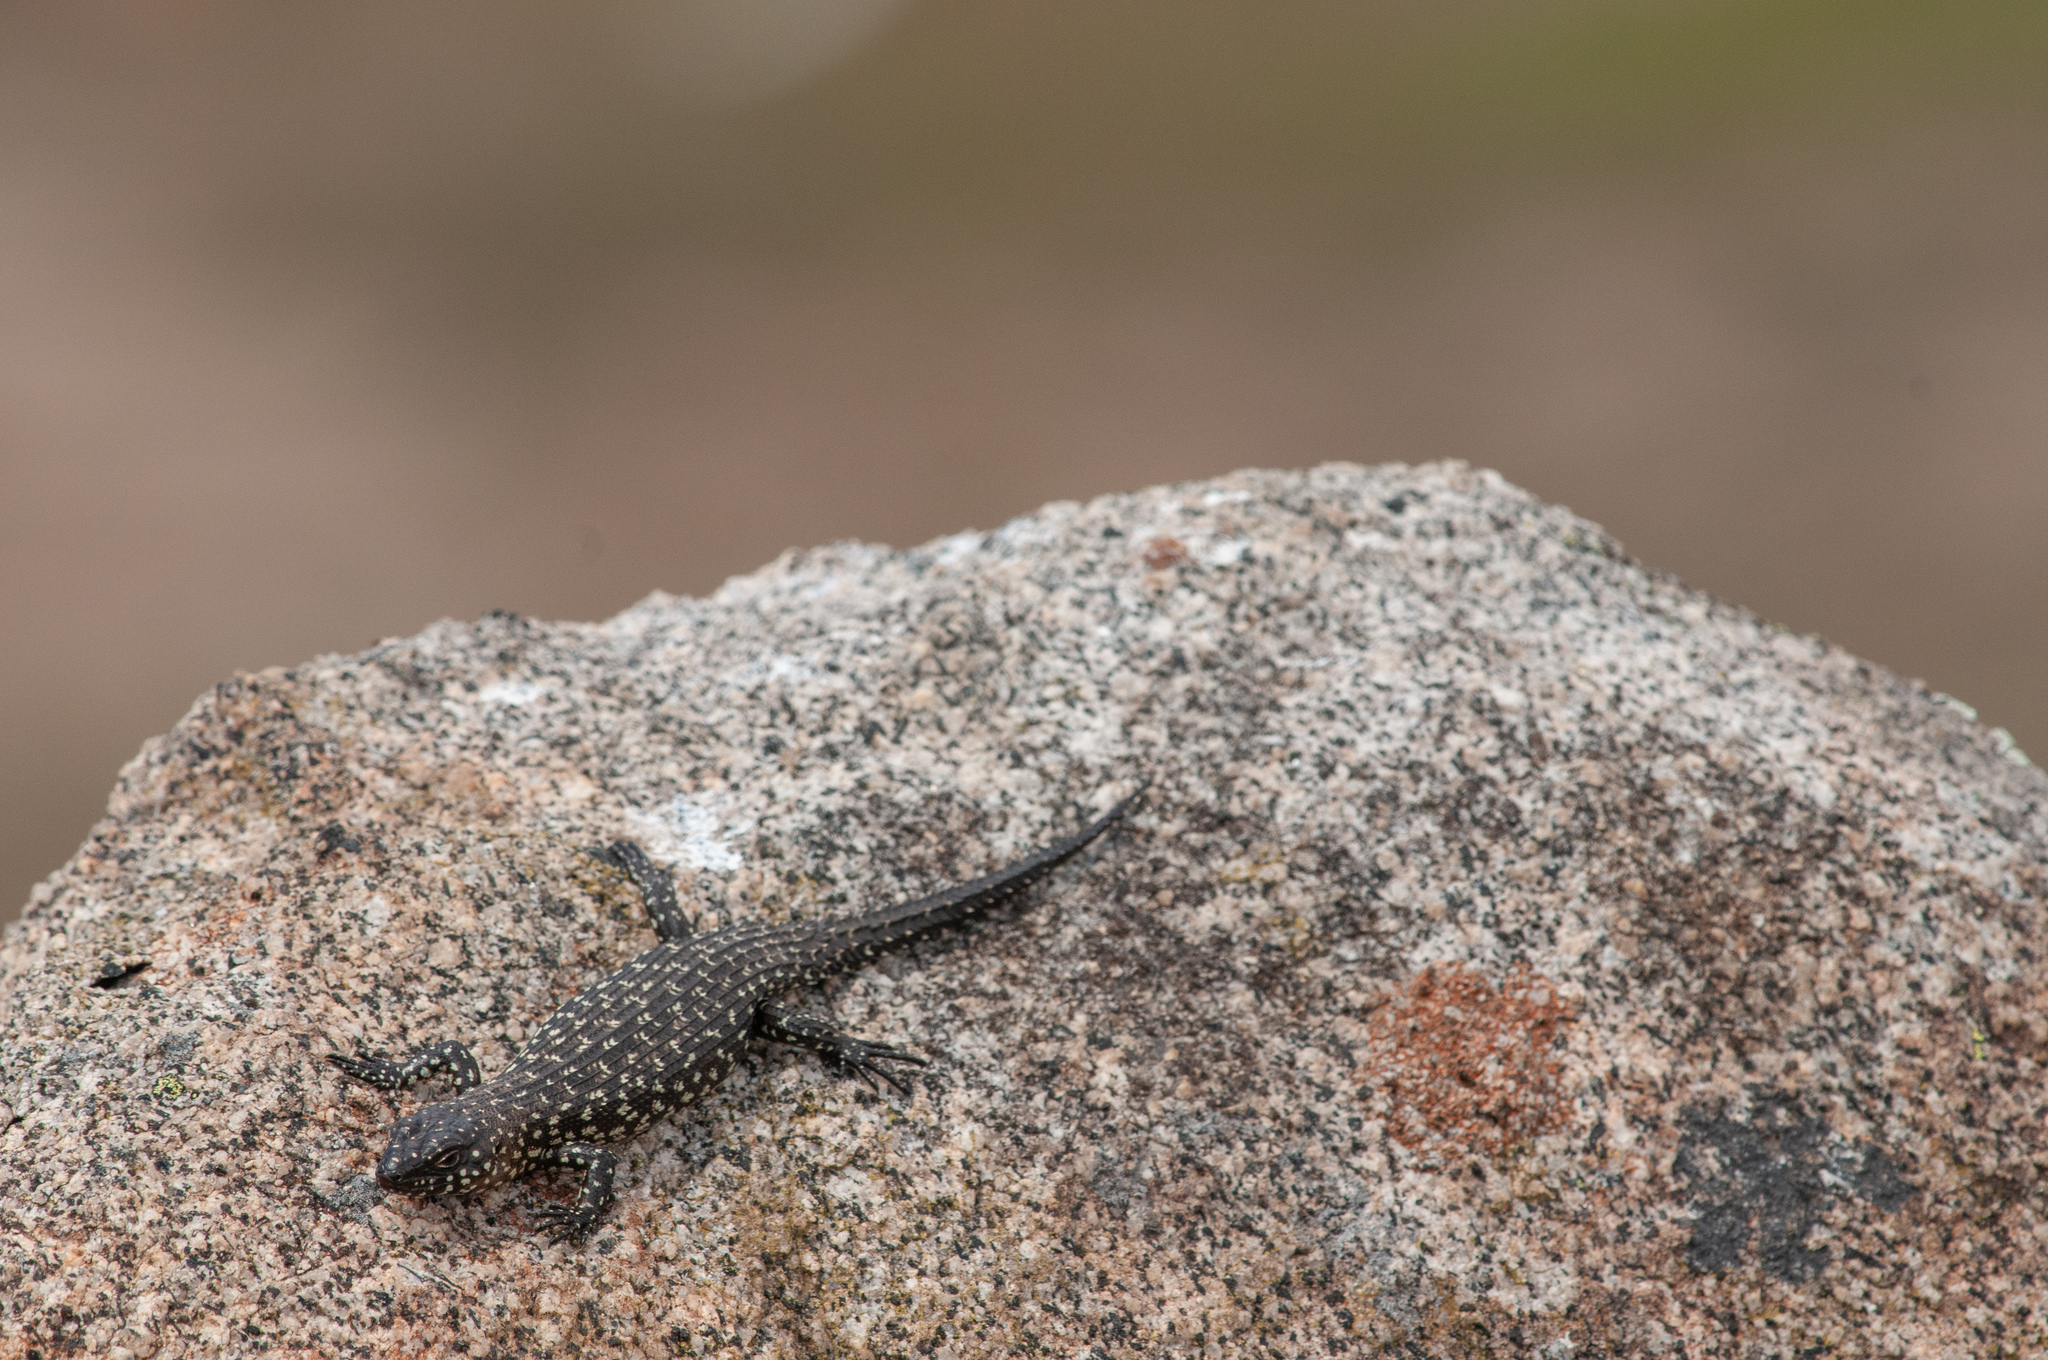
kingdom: Animalia
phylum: Chordata
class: Squamata
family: Scincidae
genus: Egernia
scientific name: Egernia cunninghami
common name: Cunningham's skink
